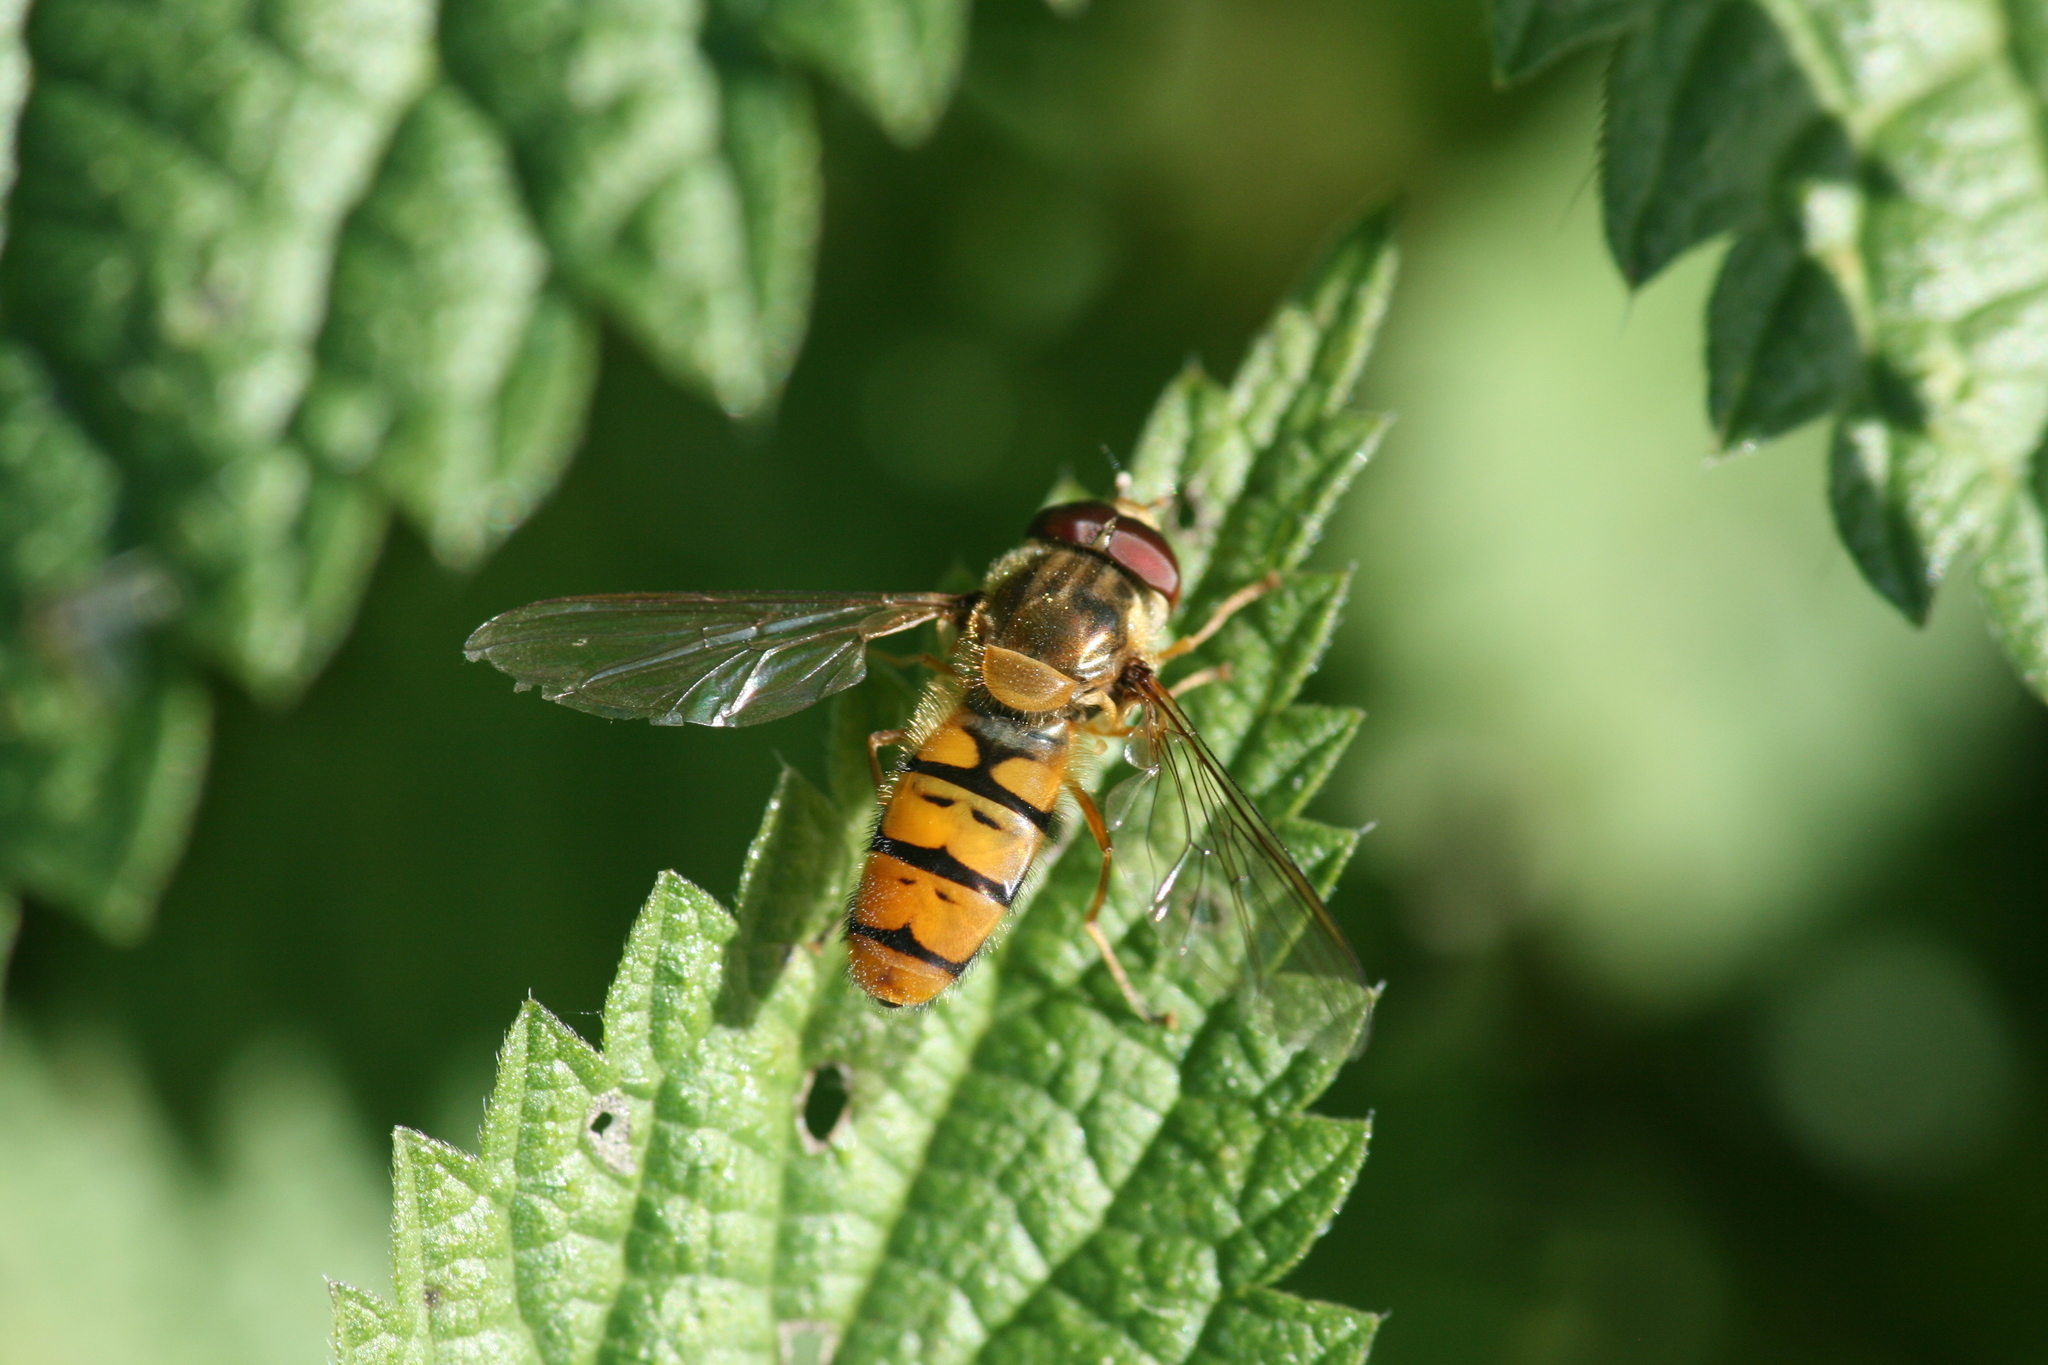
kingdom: Animalia
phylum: Arthropoda
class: Insecta
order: Diptera
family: Syrphidae
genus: Episyrphus
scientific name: Episyrphus balteatus
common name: Marmalade hoverfly
